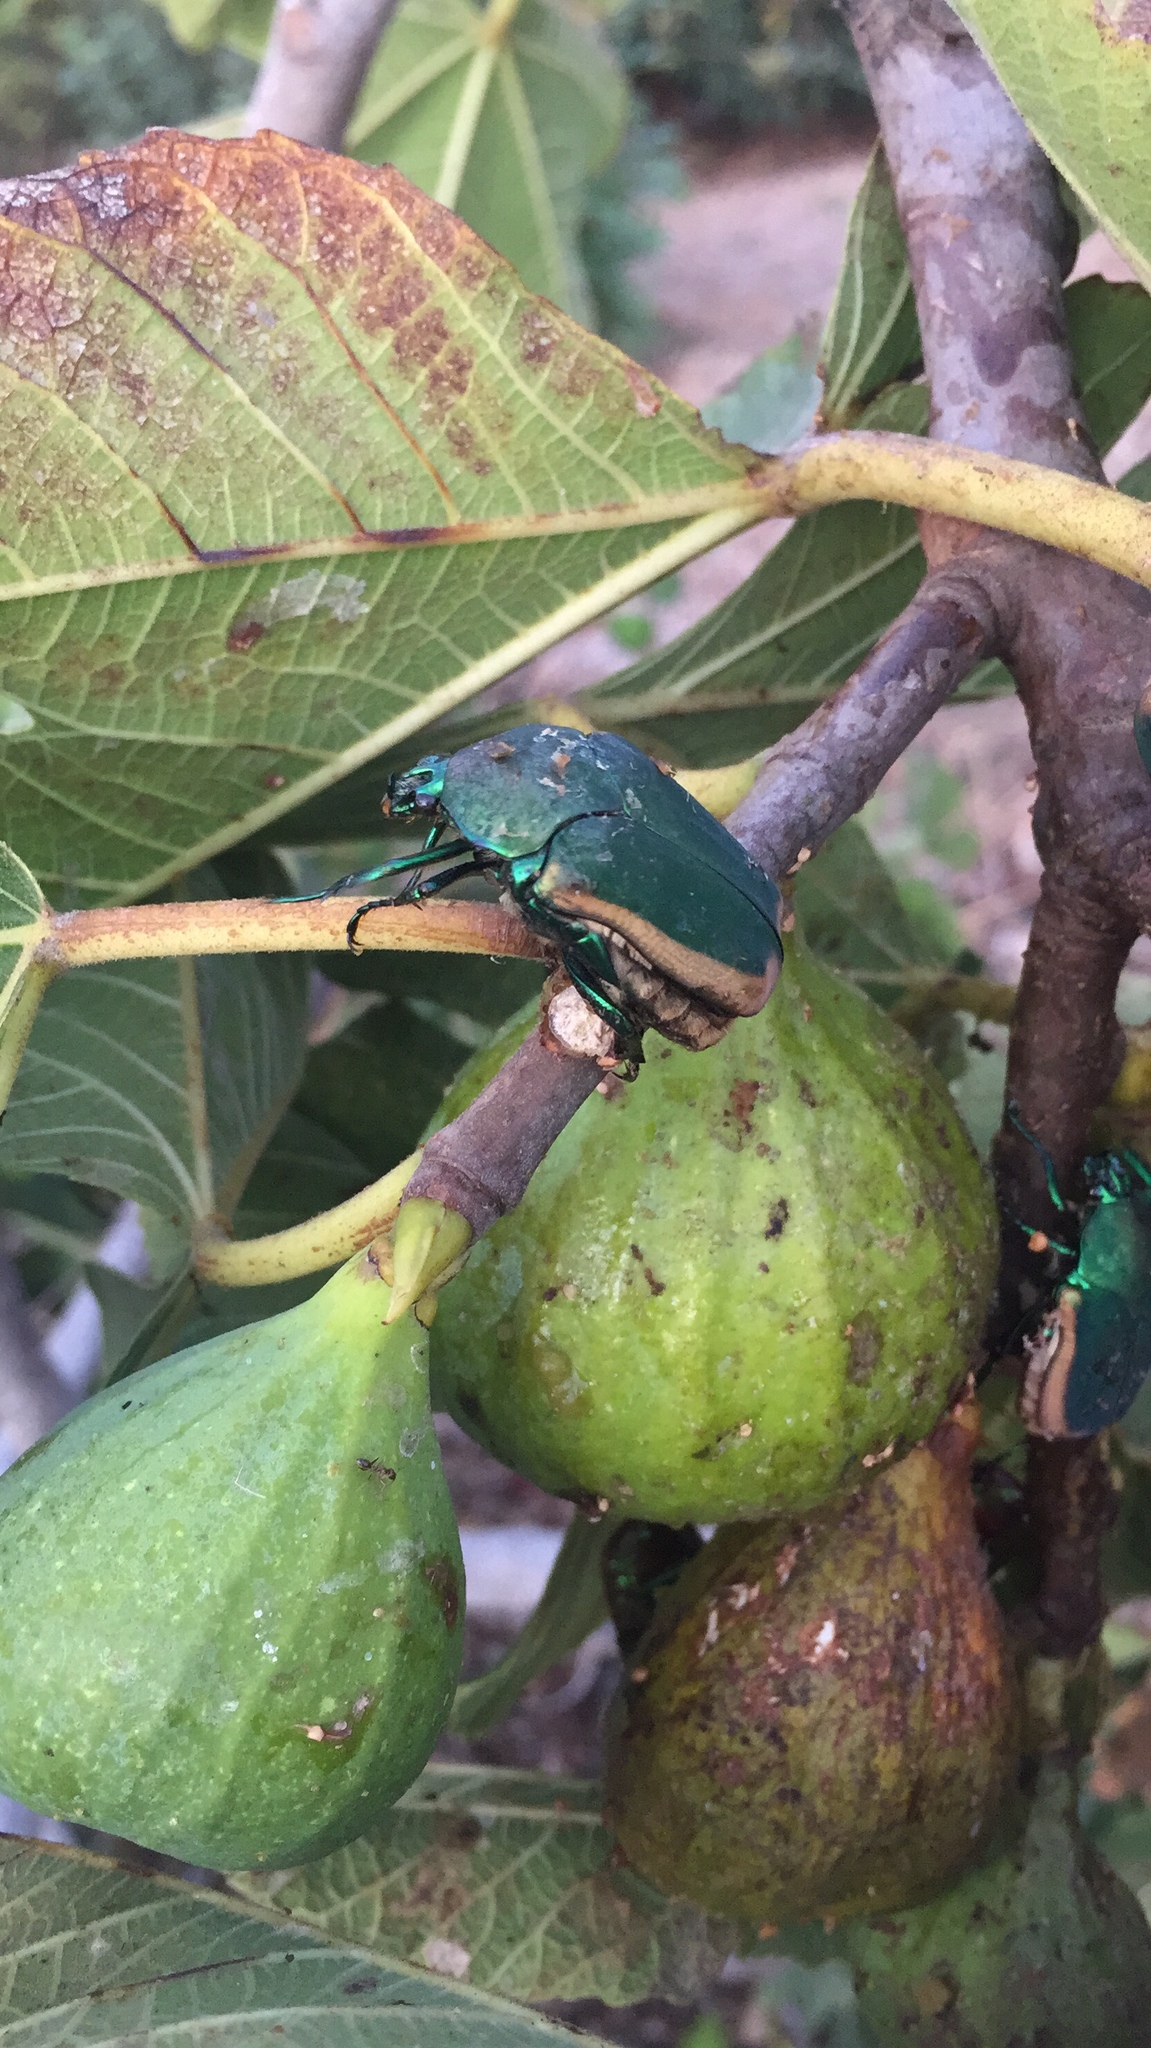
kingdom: Animalia
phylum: Arthropoda
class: Insecta
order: Coleoptera
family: Scarabaeidae
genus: Cotinis
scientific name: Cotinis mutabilis
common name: Figeater beetle
